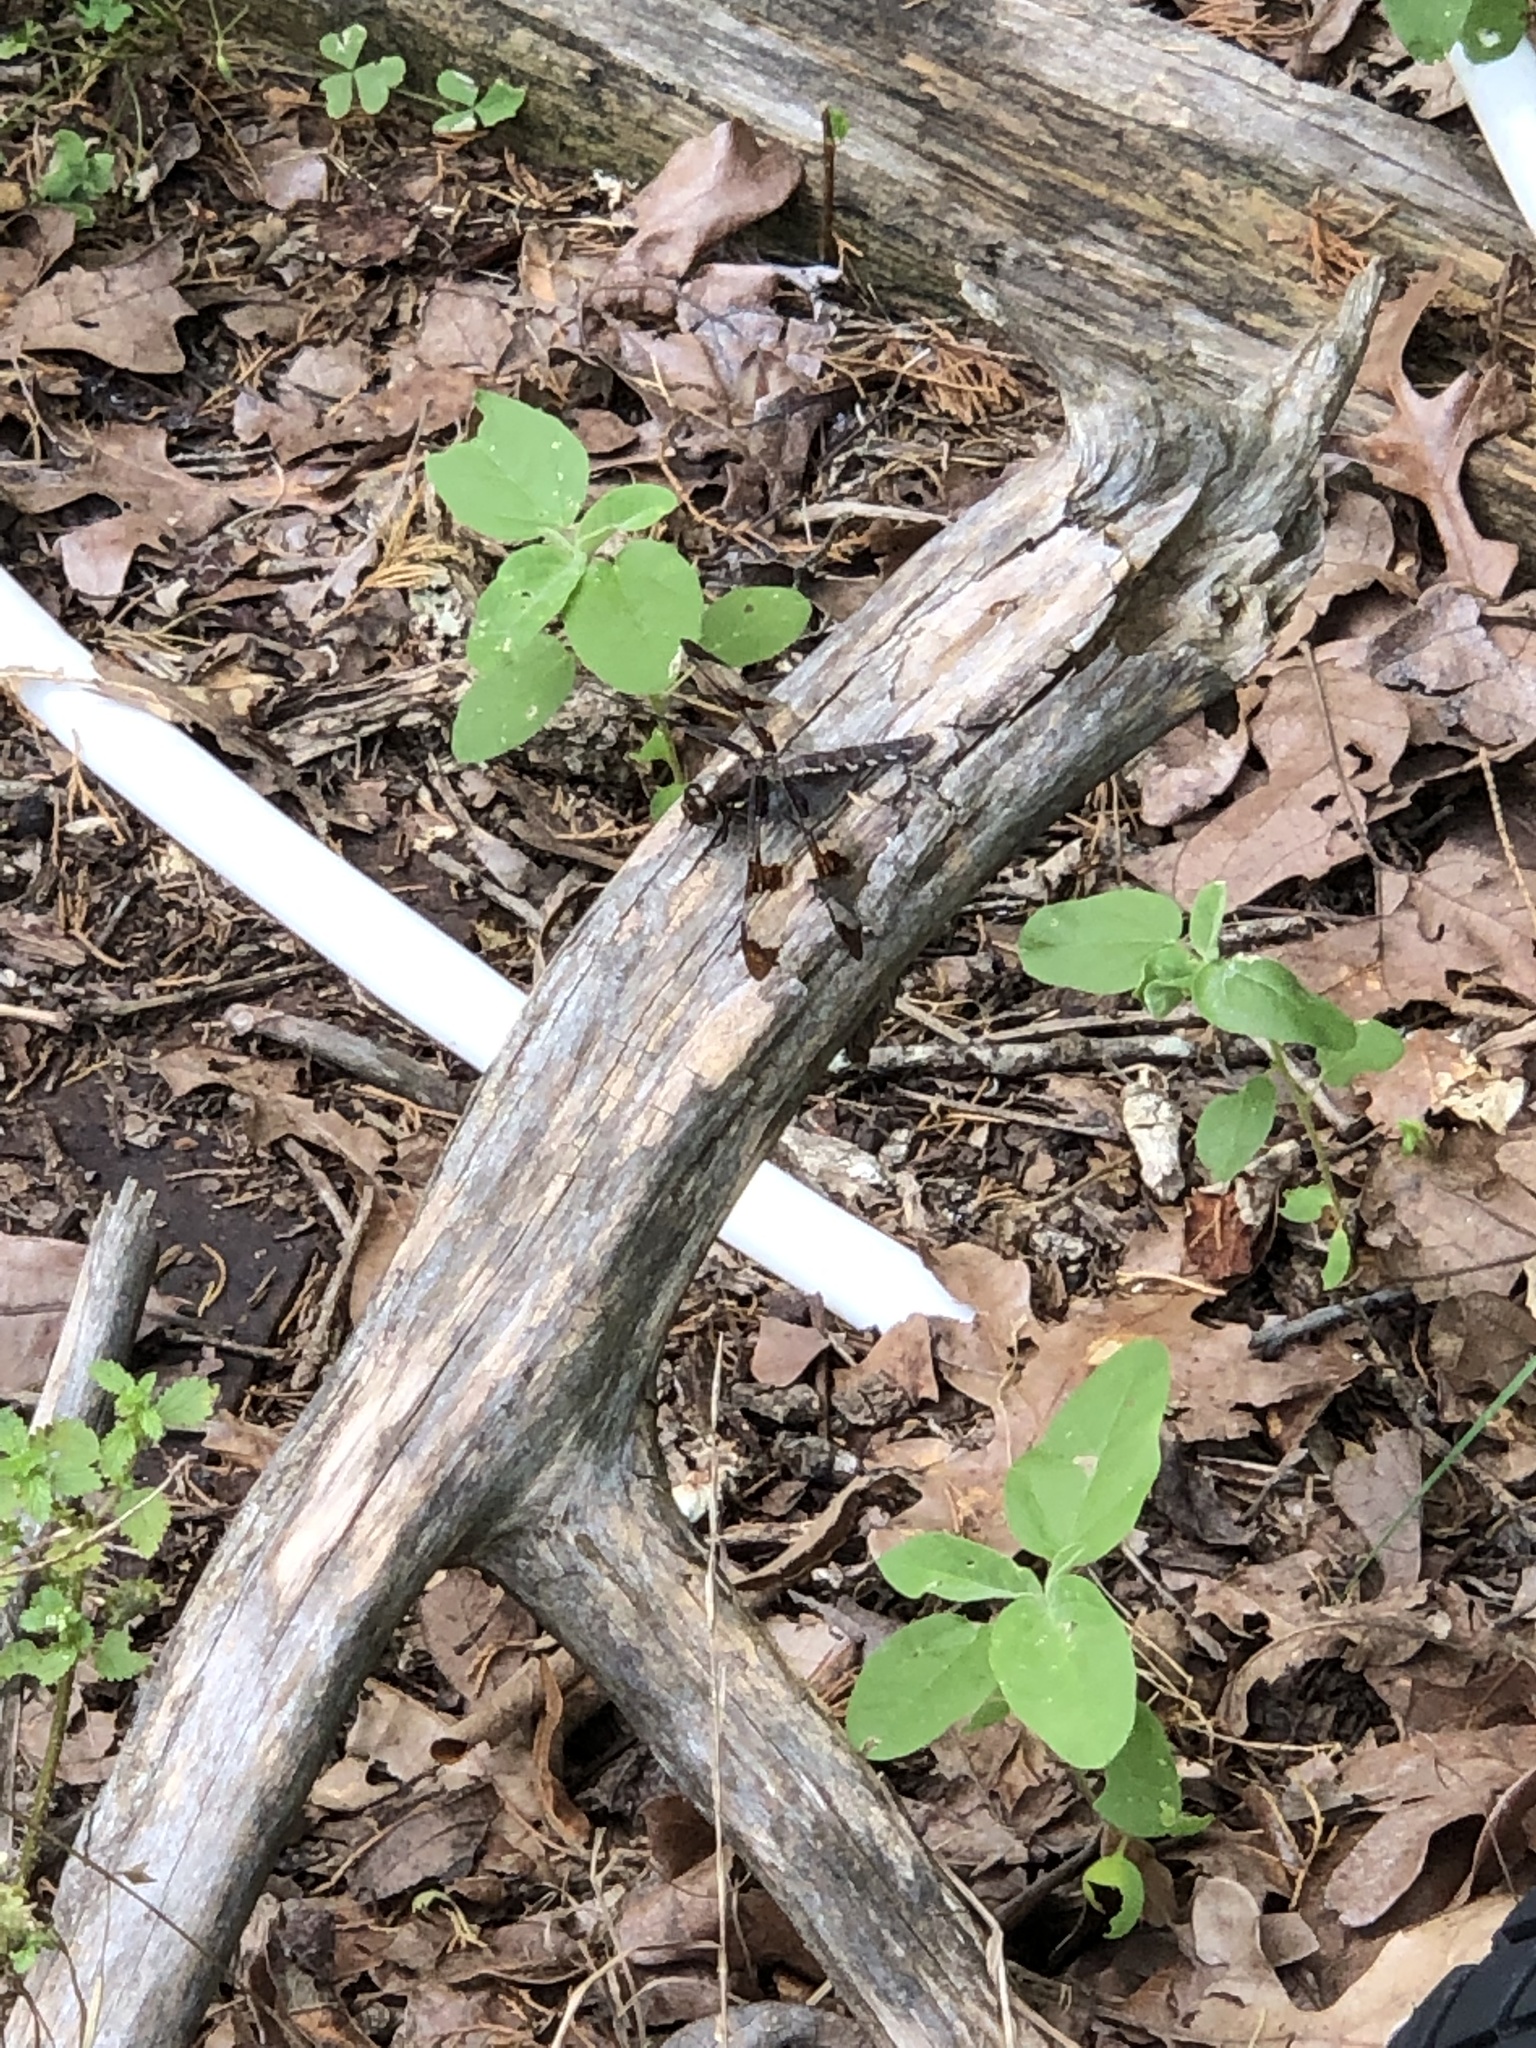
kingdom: Animalia
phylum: Arthropoda
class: Insecta
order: Odonata
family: Libellulidae
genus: Plathemis
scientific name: Plathemis lydia
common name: Common whitetail
